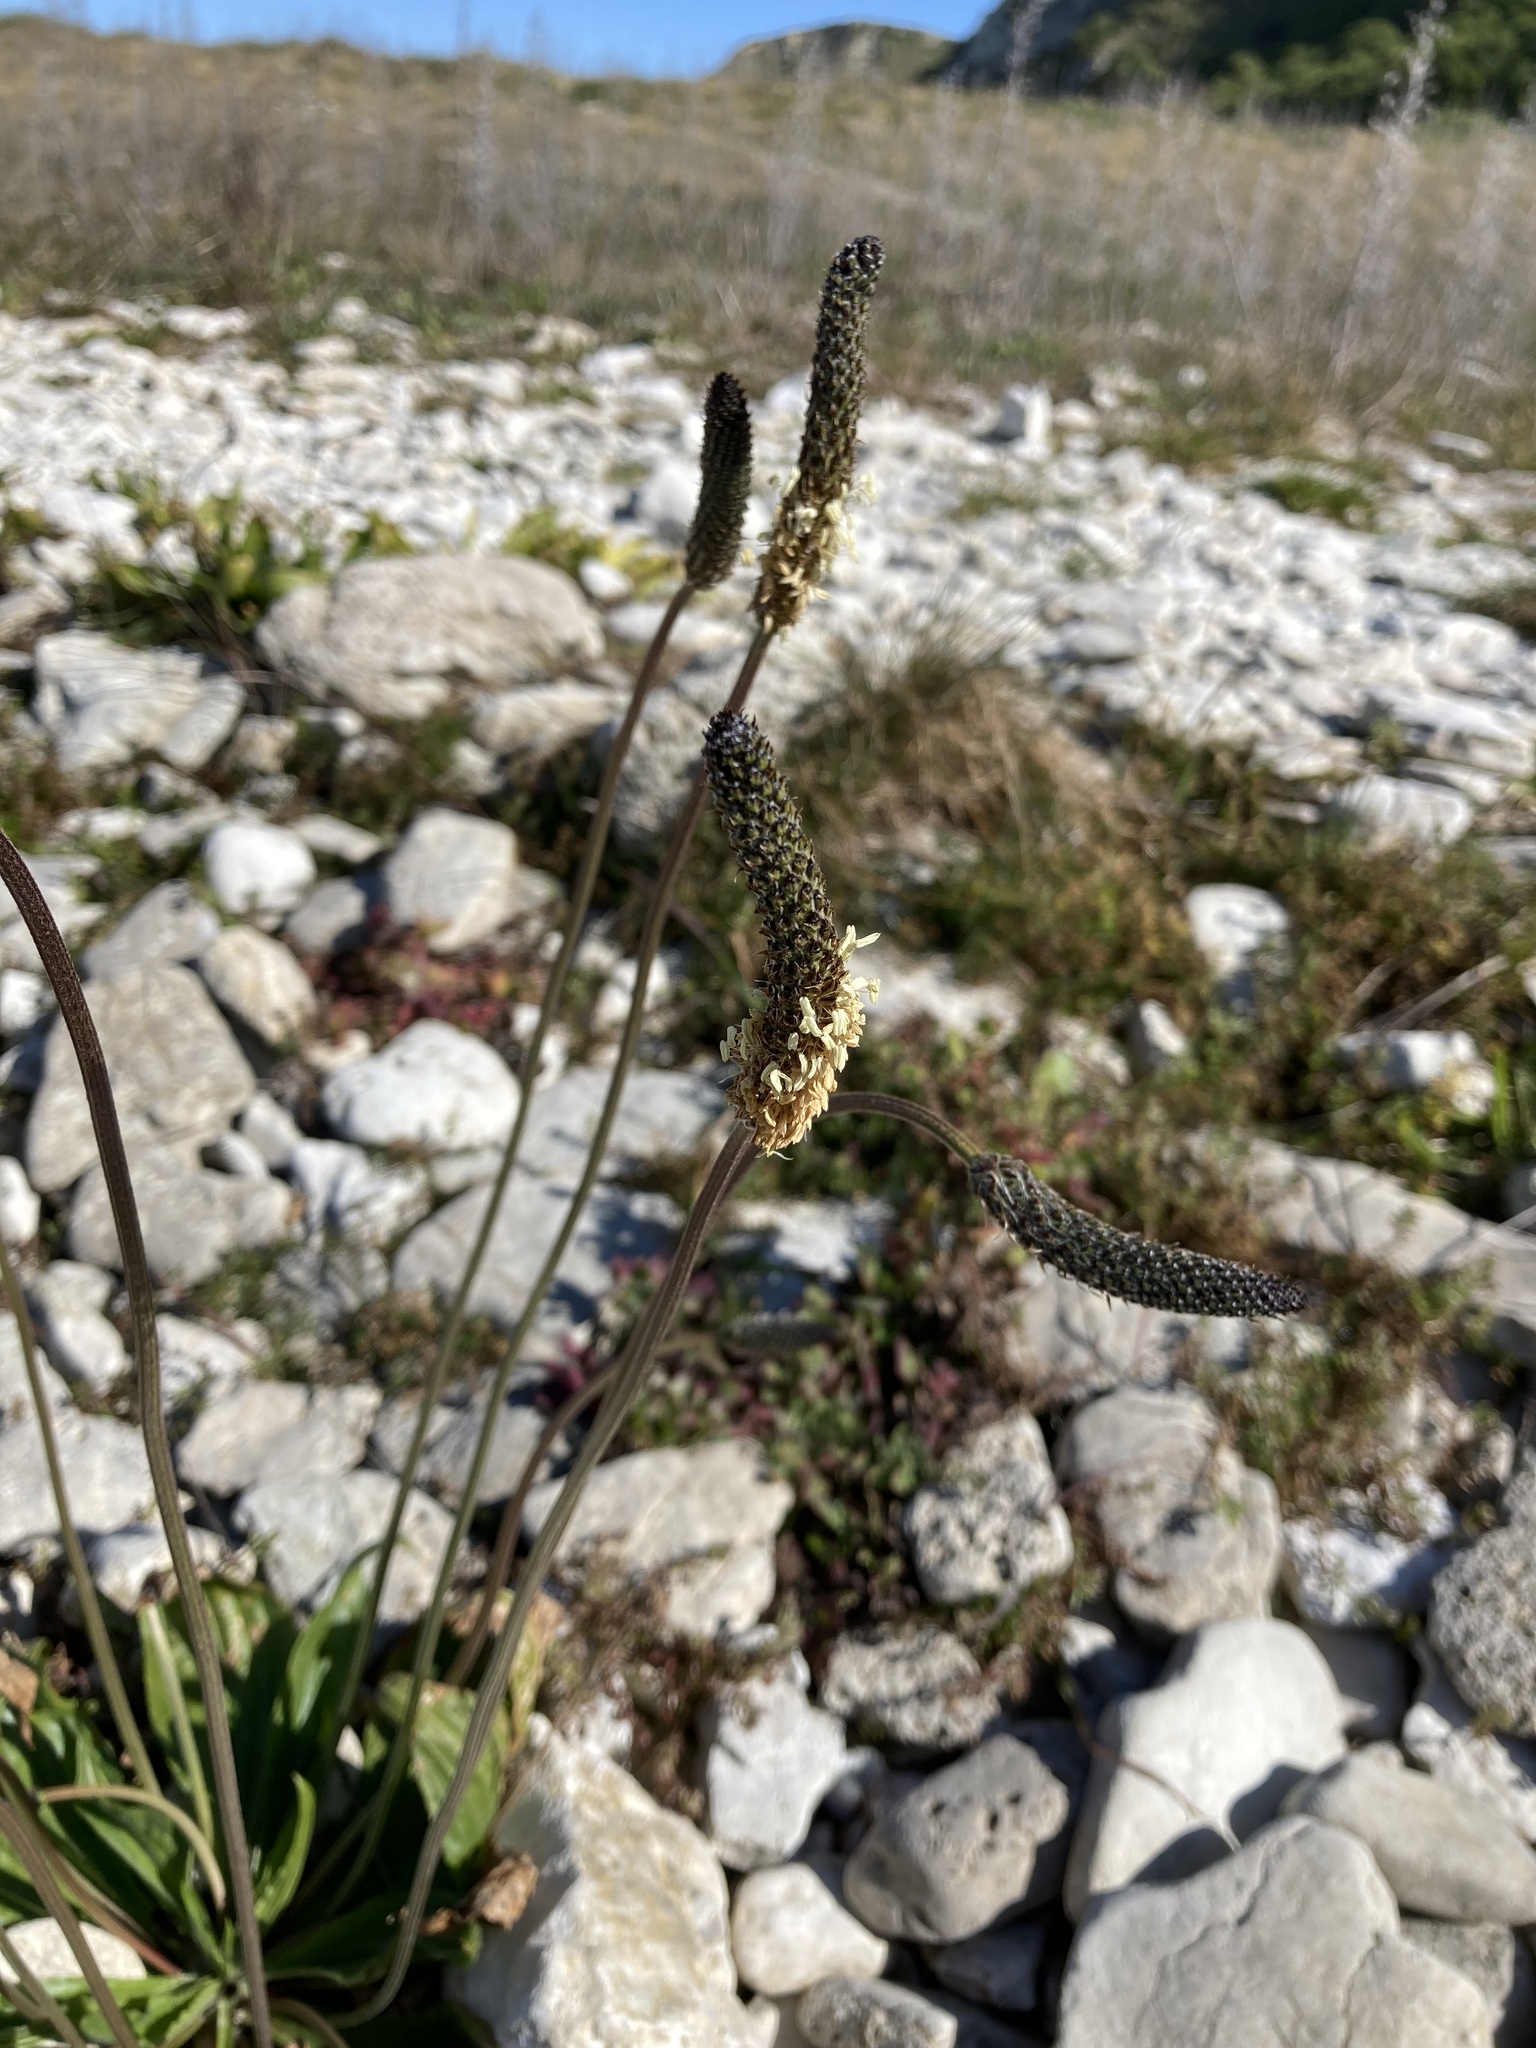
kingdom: Plantae
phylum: Tracheophyta
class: Magnoliopsida
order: Lamiales
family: Plantaginaceae
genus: Plantago
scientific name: Plantago lanceolata
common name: Ribwort plantain
